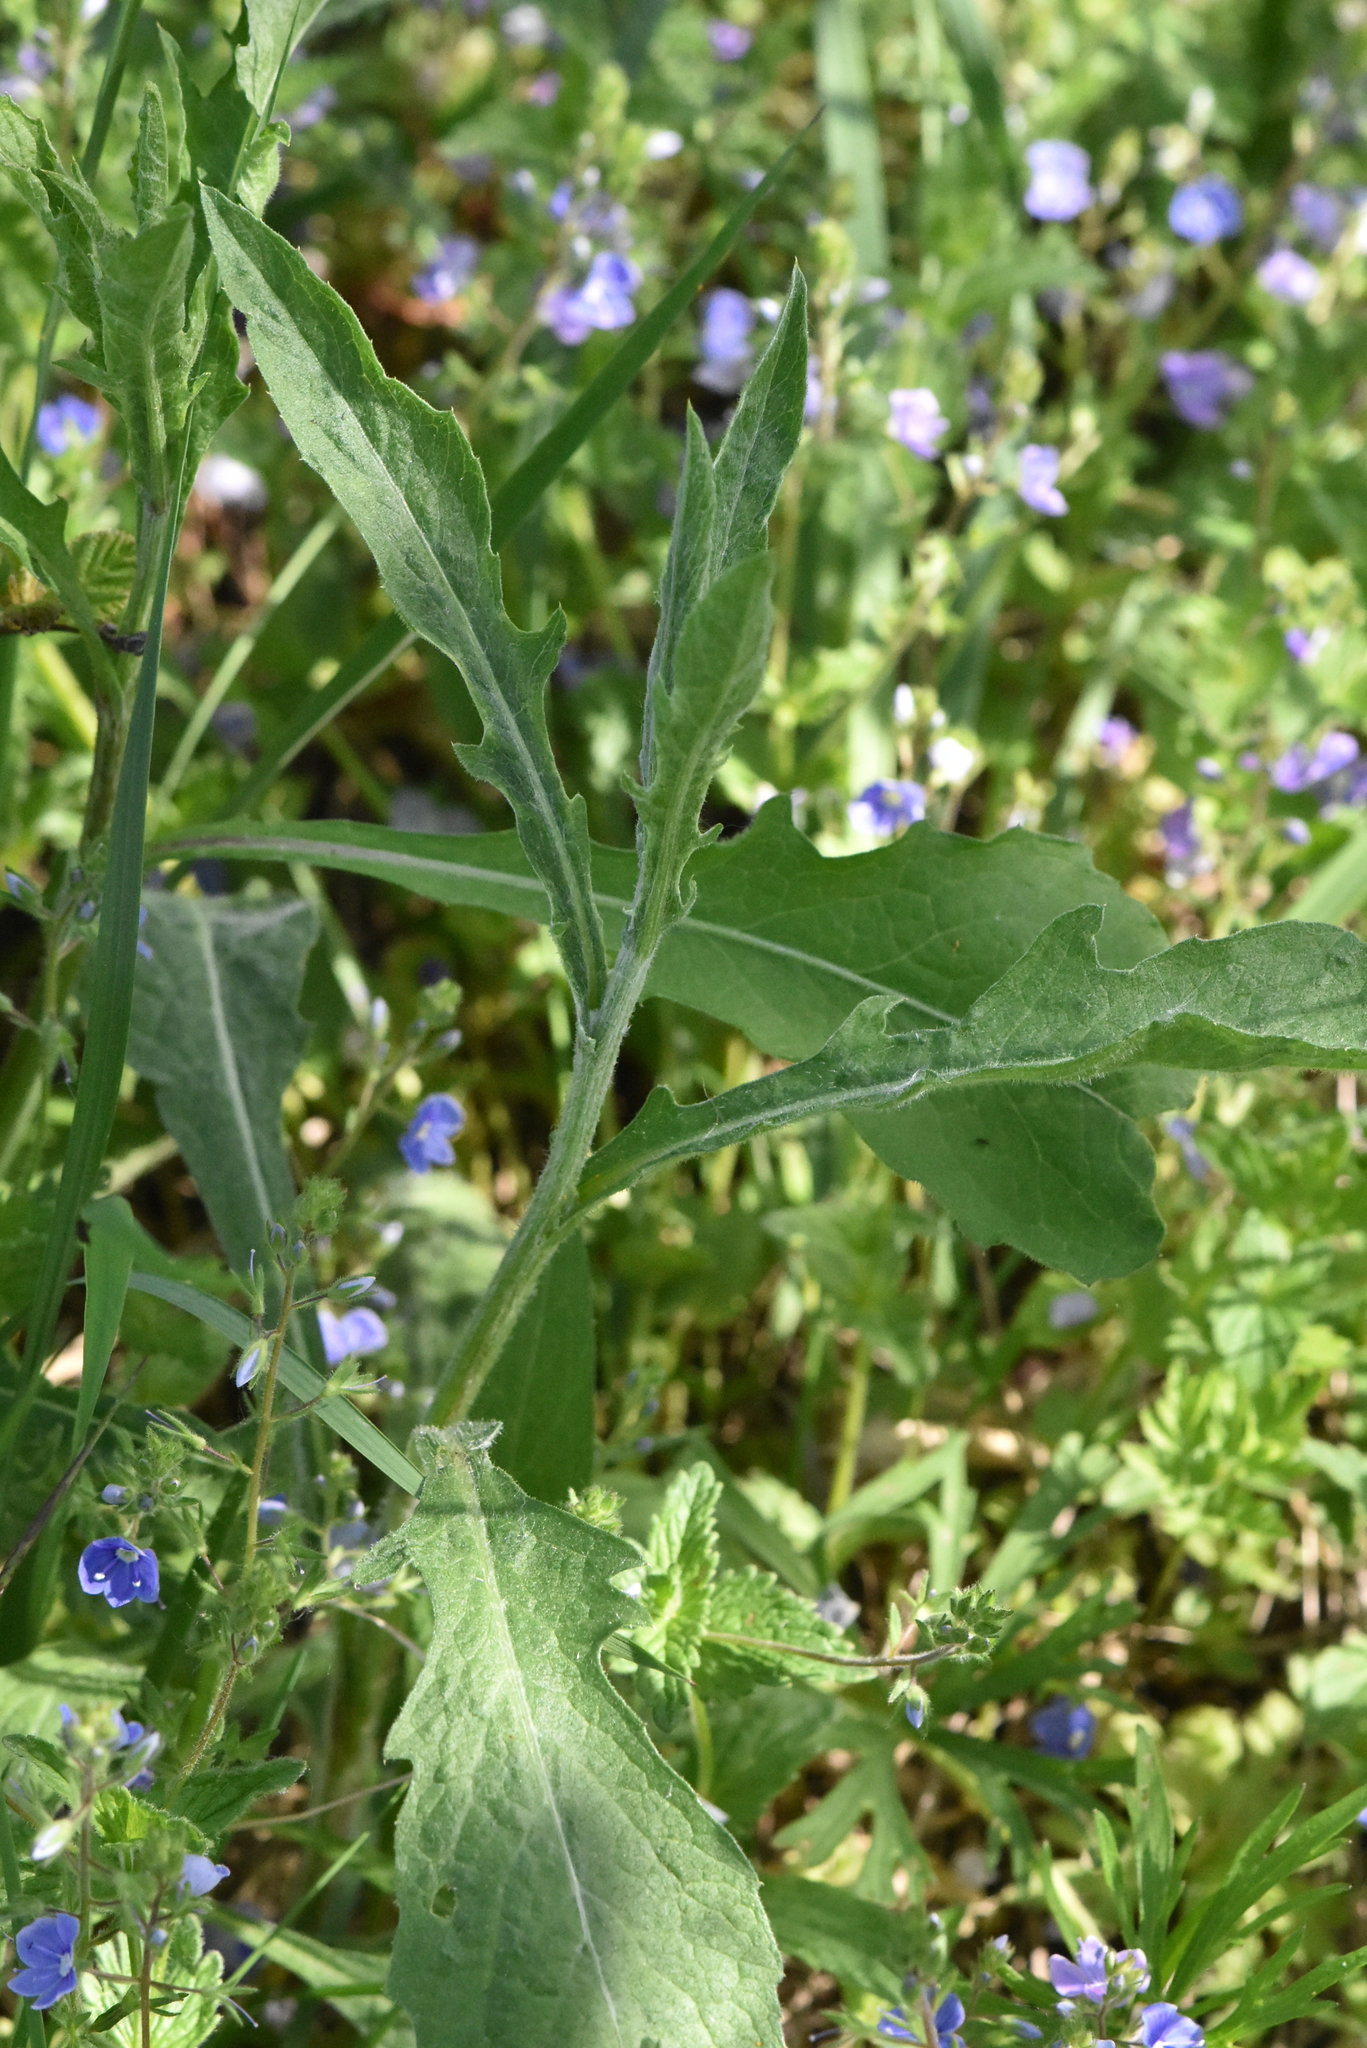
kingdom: Plantae
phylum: Tracheophyta
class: Magnoliopsida
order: Asterales
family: Asteraceae
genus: Centaurea
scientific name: Centaurea jacea
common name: Brown knapweed
